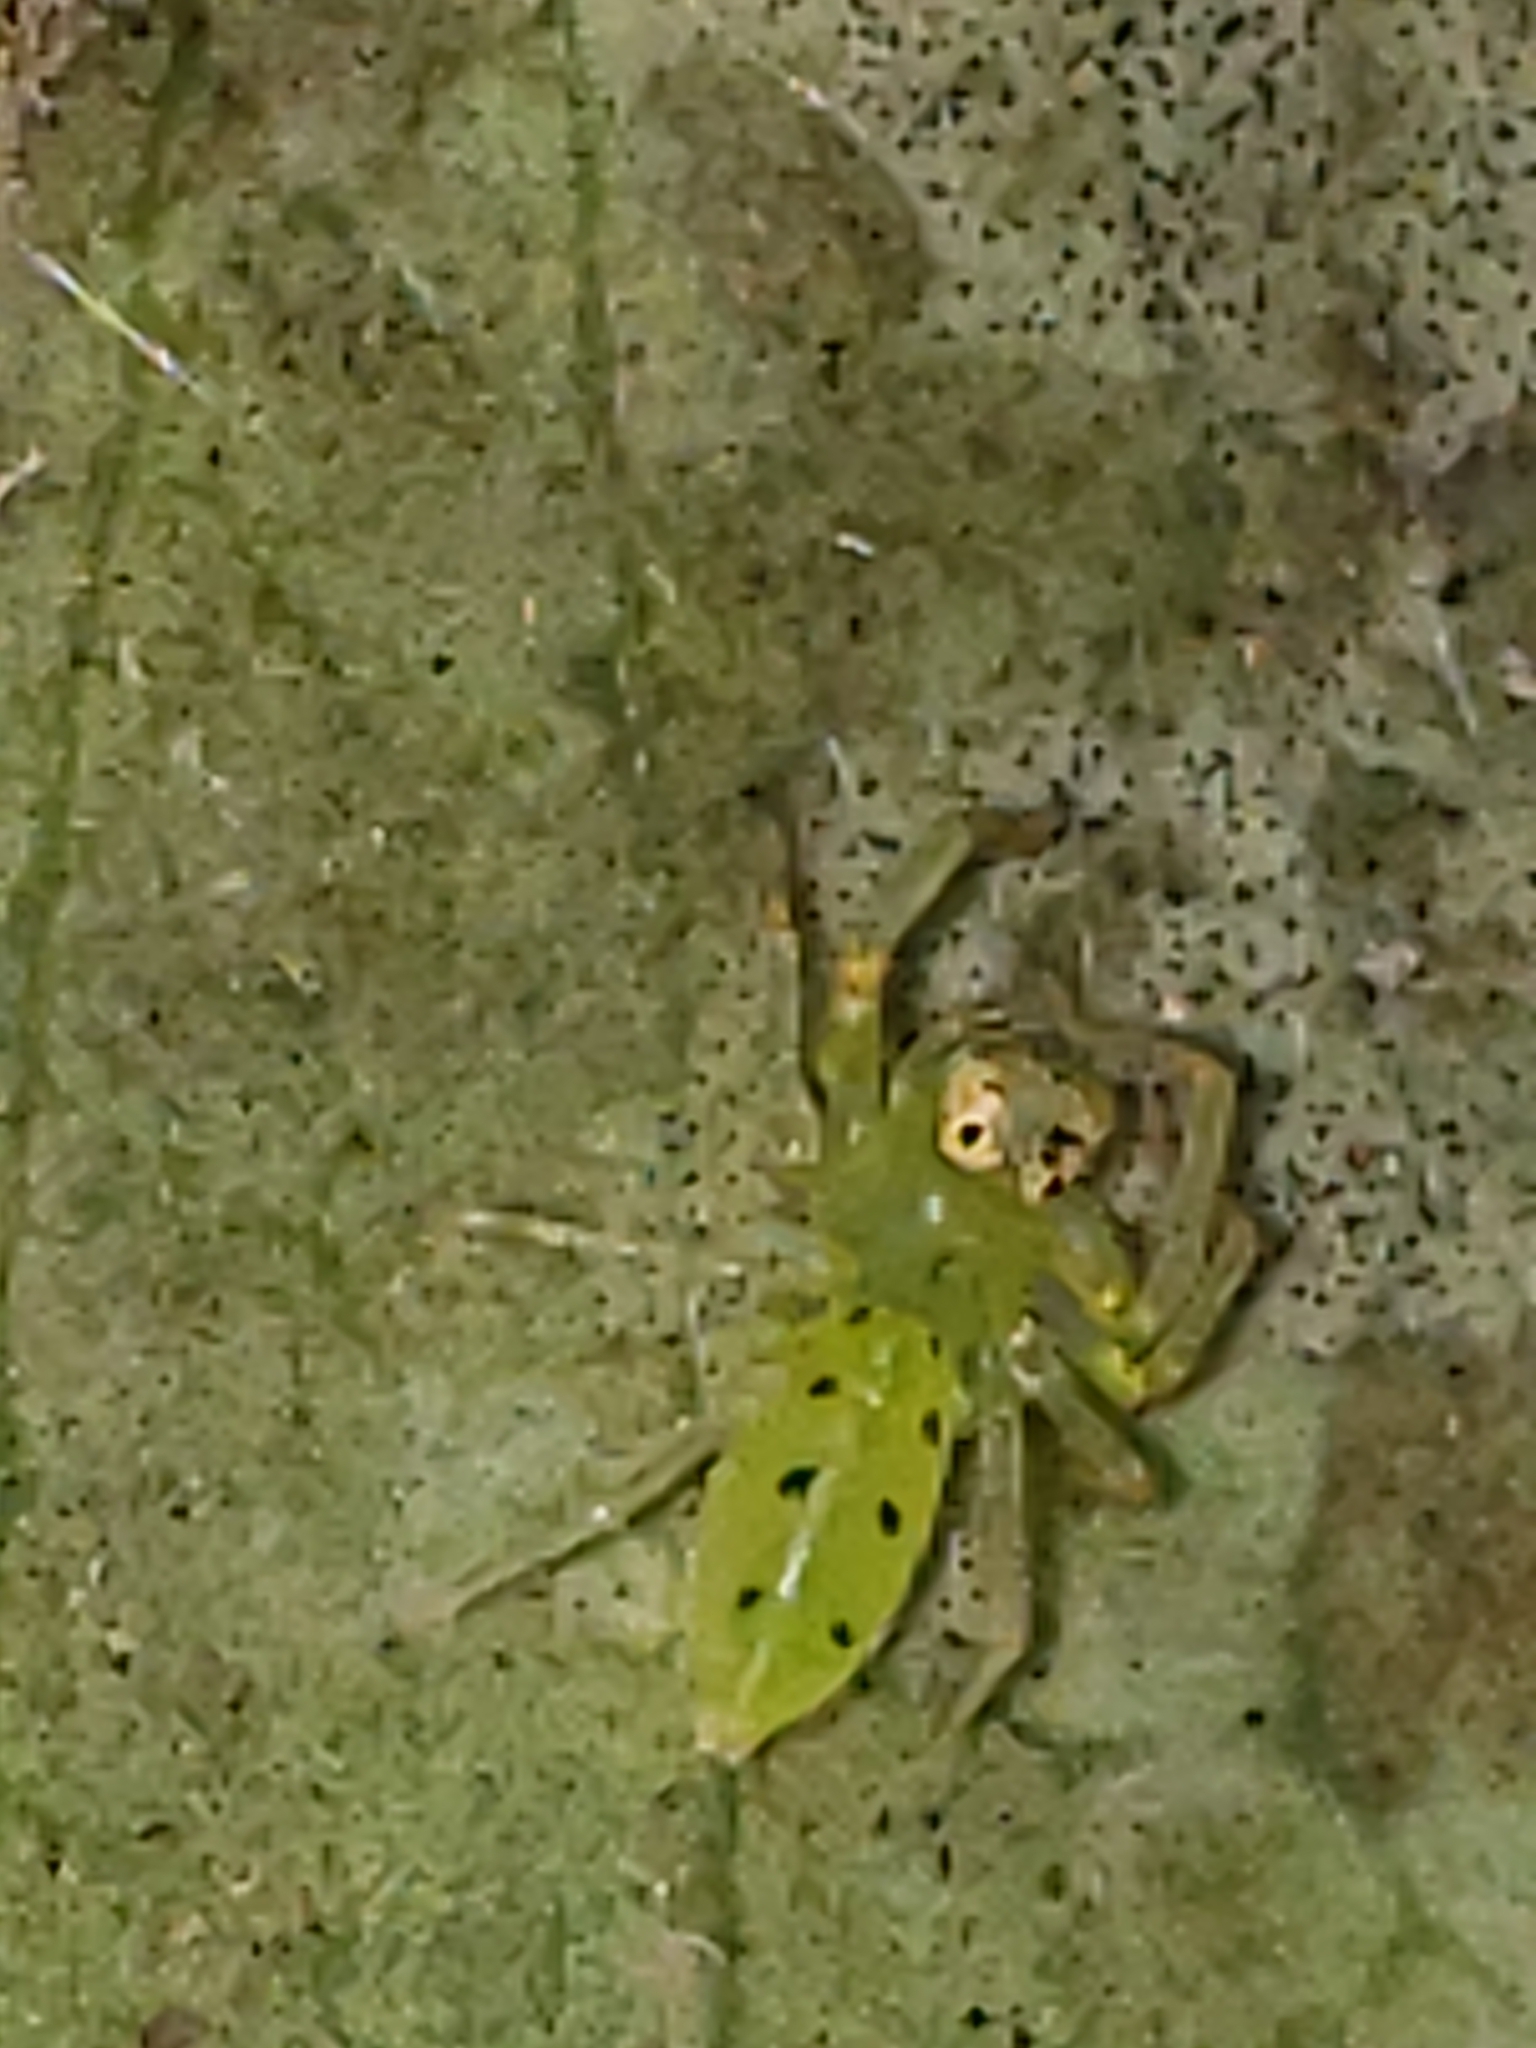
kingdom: Animalia
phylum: Arthropoda
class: Arachnida
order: Araneae
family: Salticidae
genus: Lyssomanes
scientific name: Lyssomanes viridis
